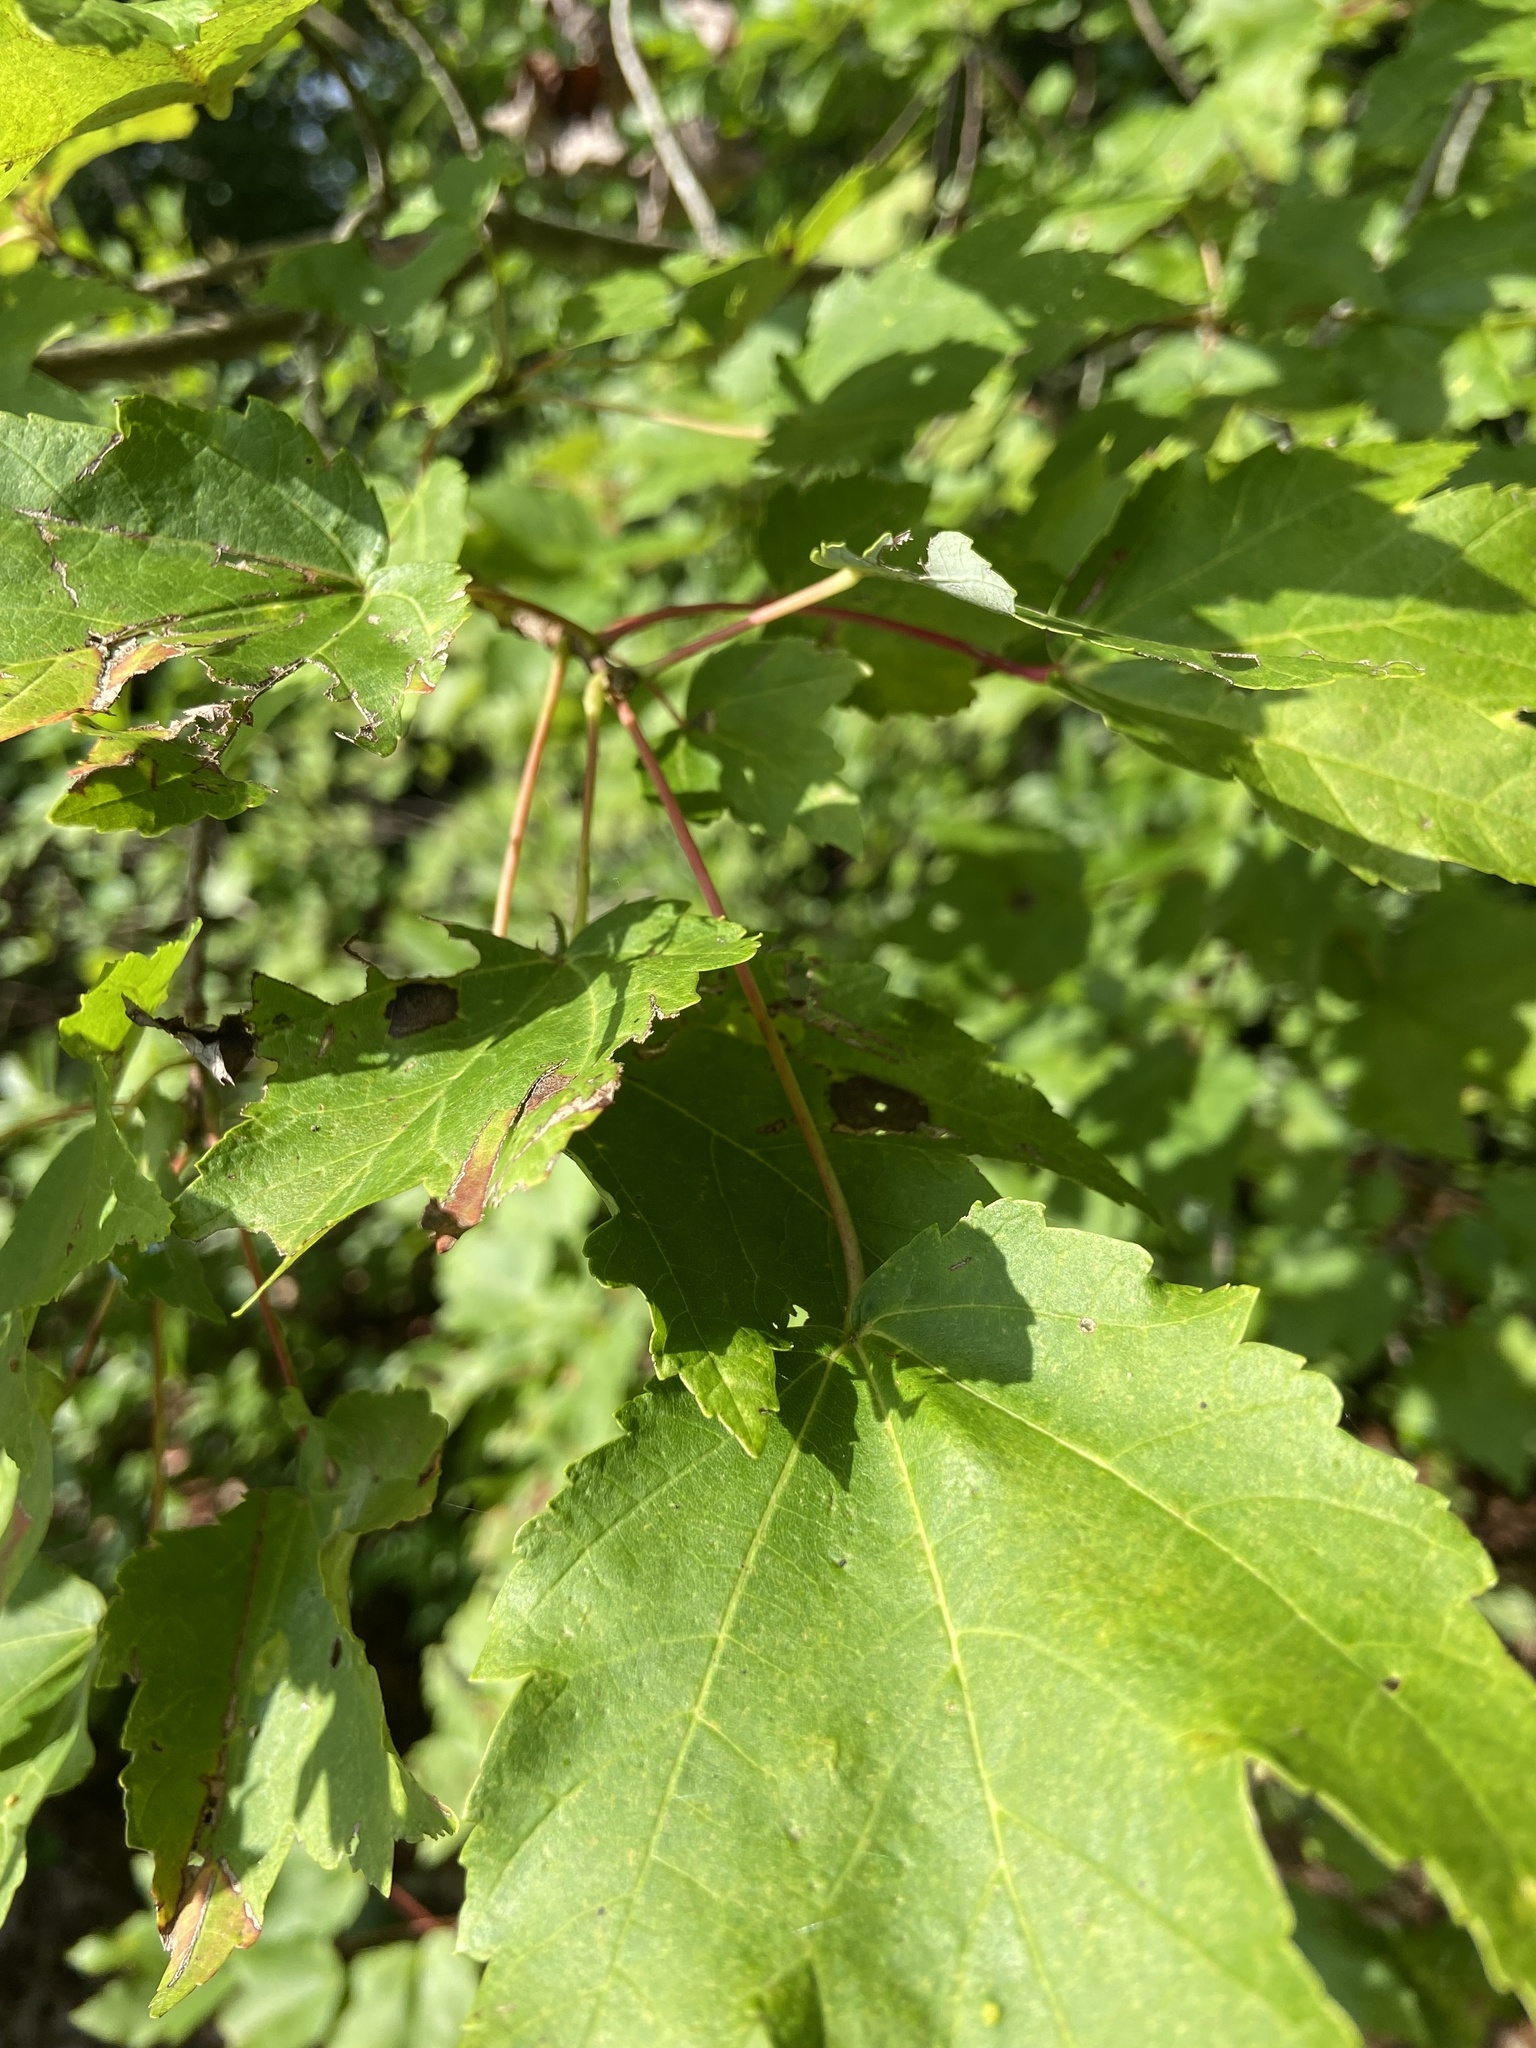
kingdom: Plantae
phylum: Tracheophyta
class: Magnoliopsida
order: Sapindales
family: Sapindaceae
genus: Acer
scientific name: Acer rubrum
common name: Red maple
